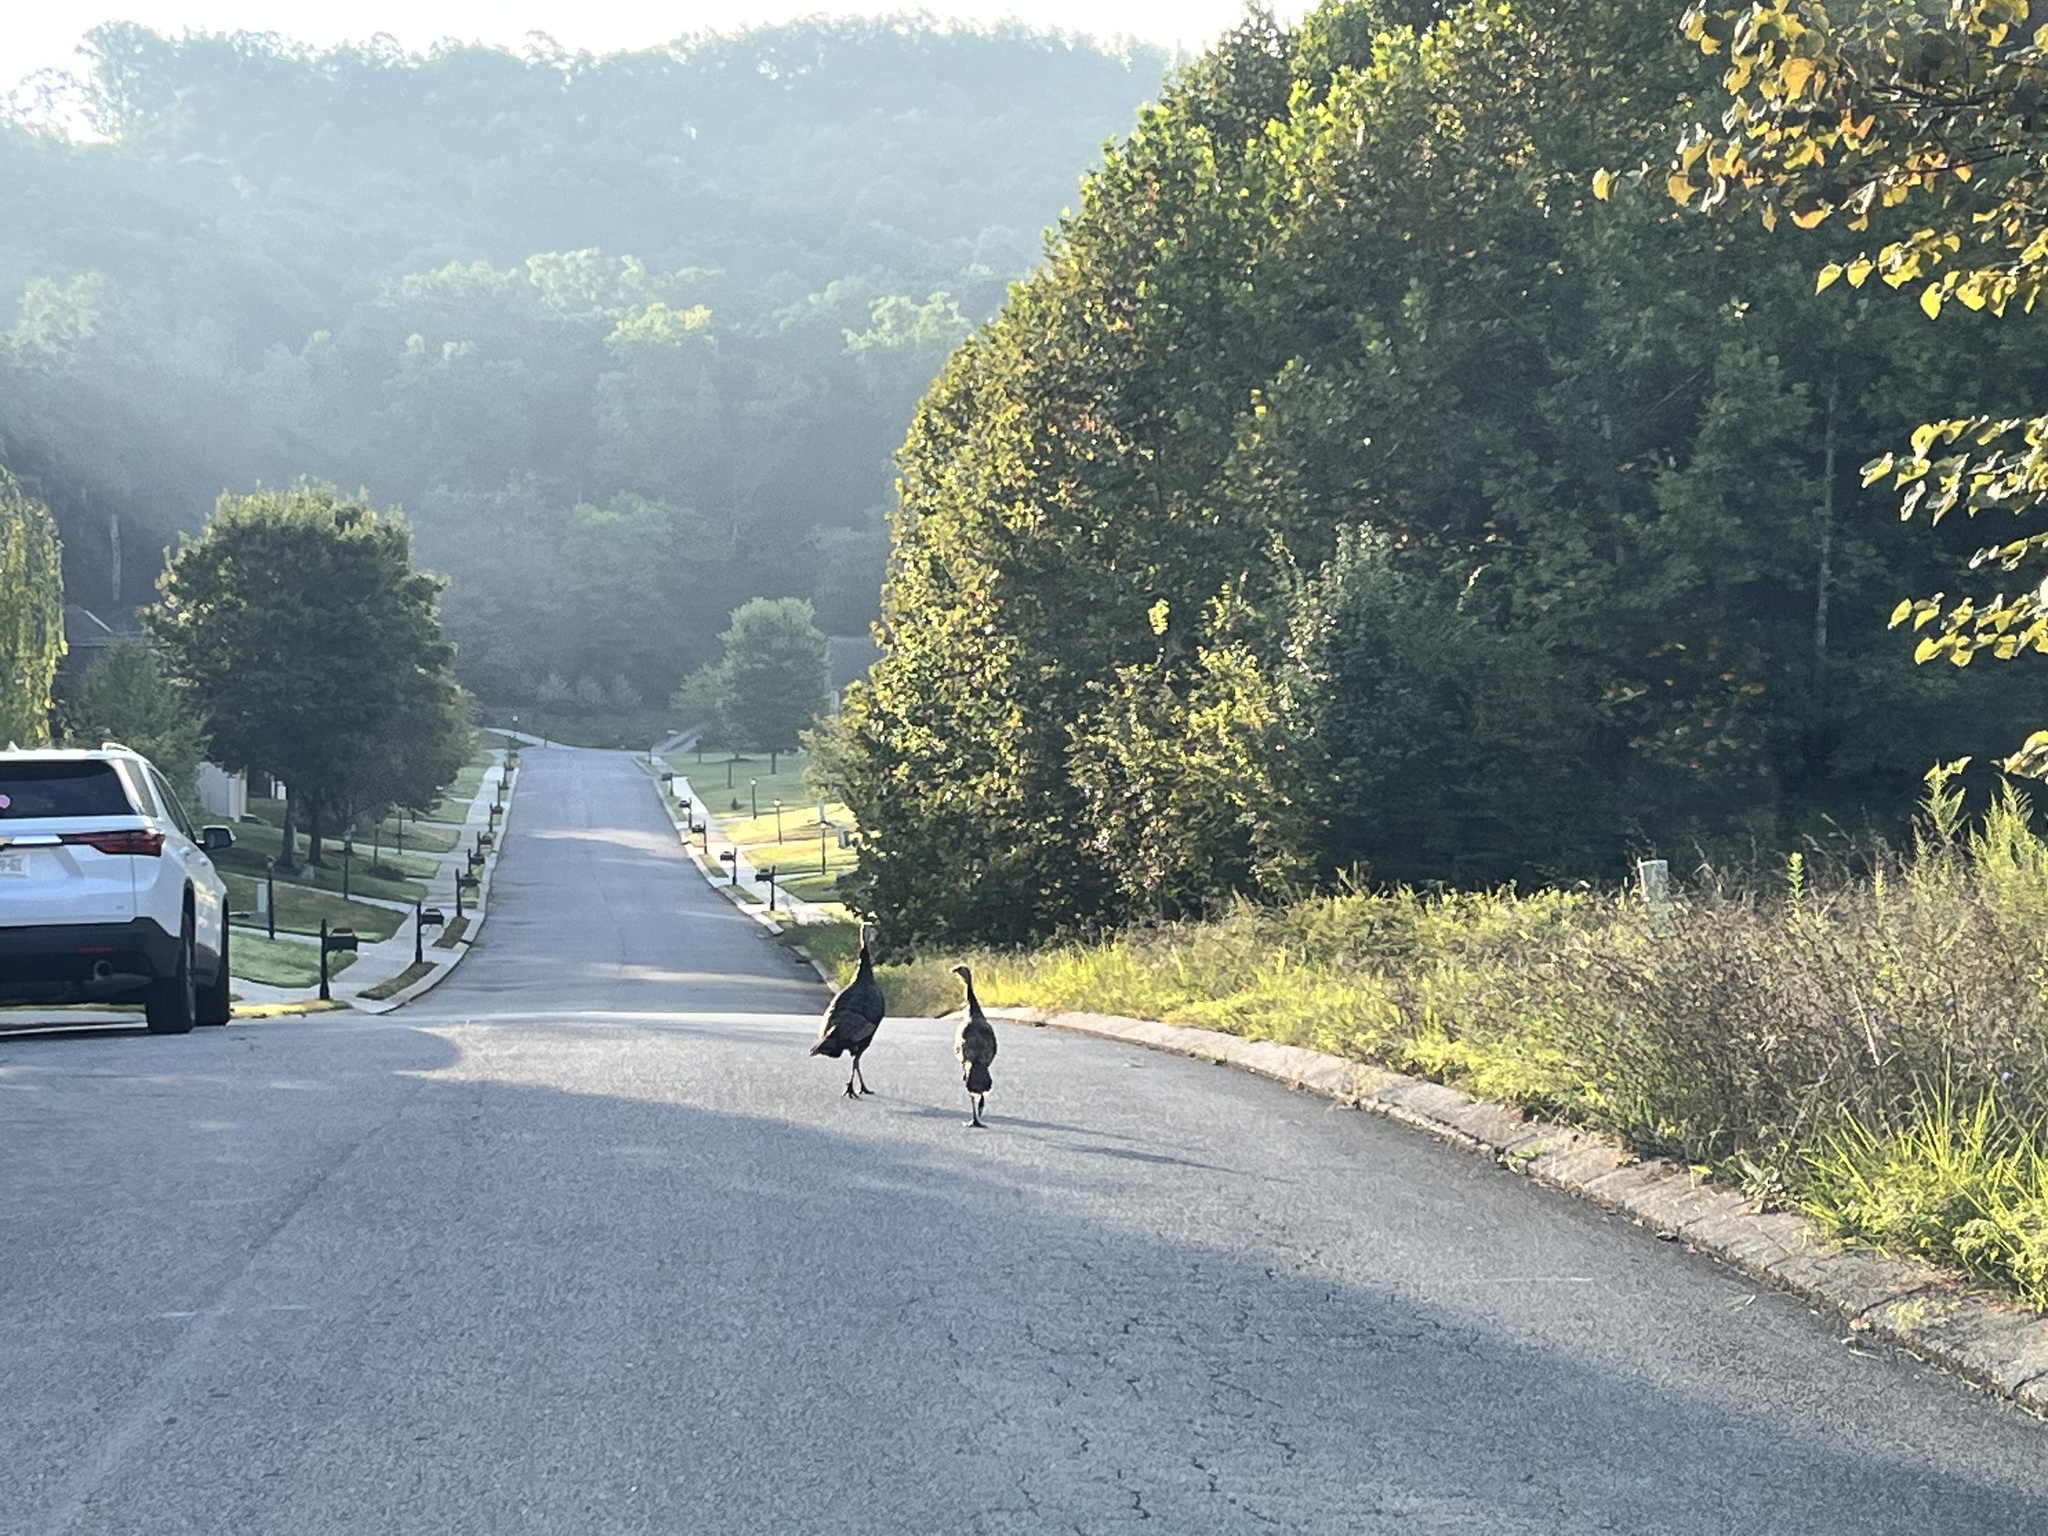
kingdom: Animalia
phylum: Chordata
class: Aves
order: Galliformes
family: Phasianidae
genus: Meleagris
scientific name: Meleagris gallopavo
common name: Wild turkey
